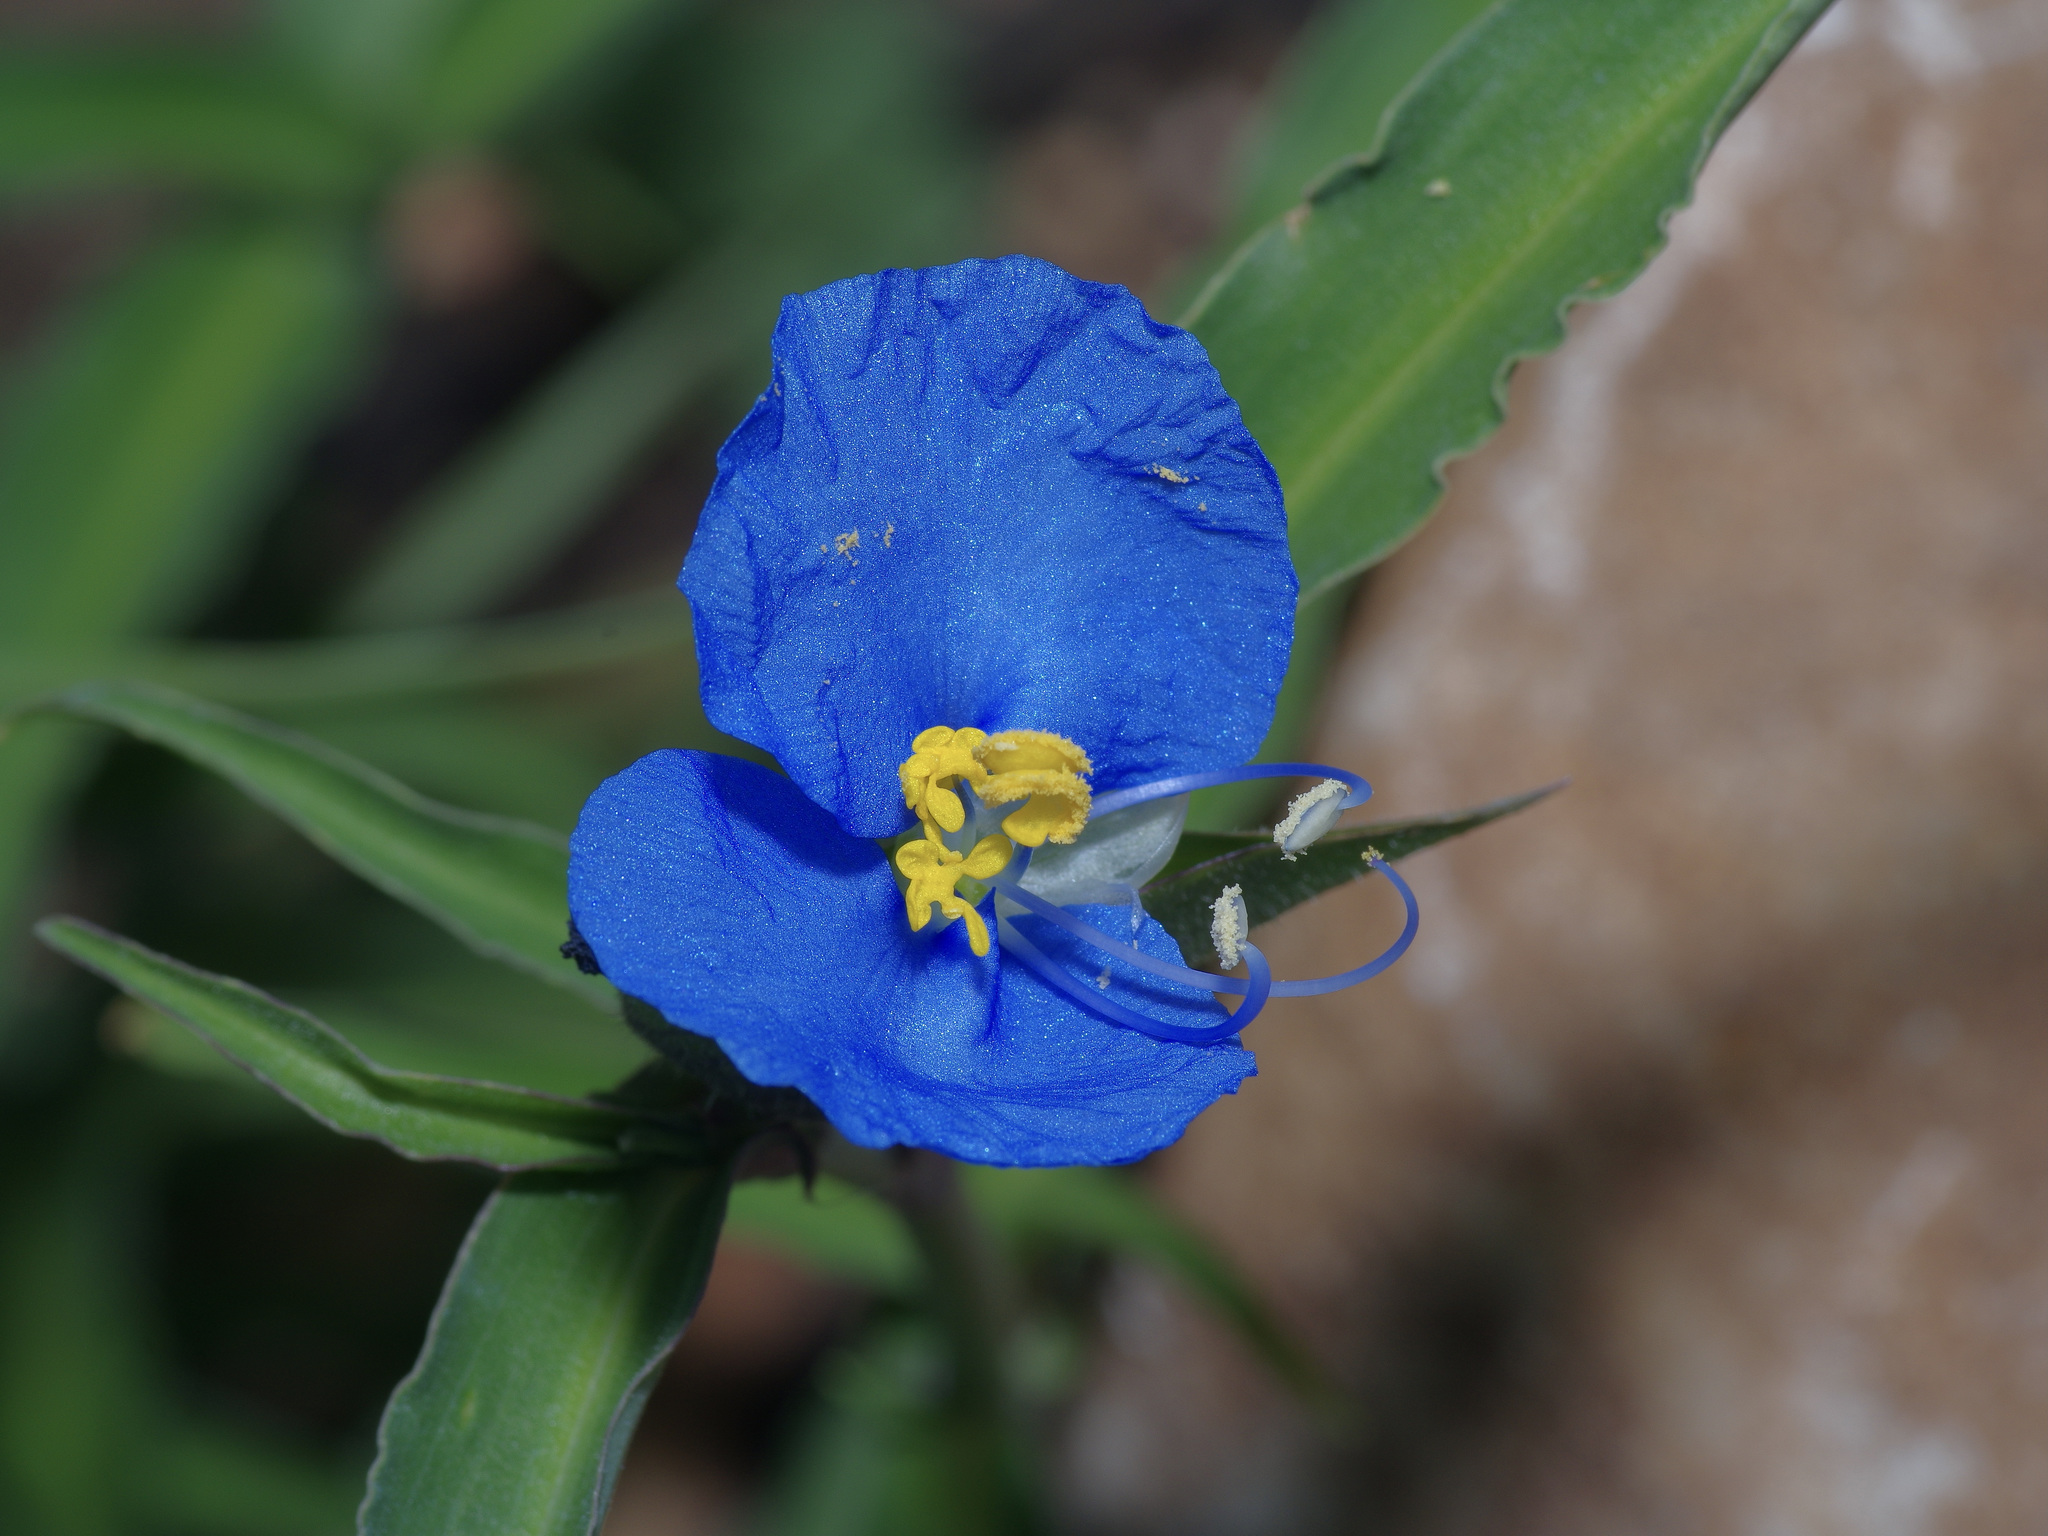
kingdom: Plantae
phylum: Tracheophyta
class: Liliopsida
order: Commelinales
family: Commelinaceae
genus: Commelina
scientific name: Commelina erecta
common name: Blousel blommetjie
